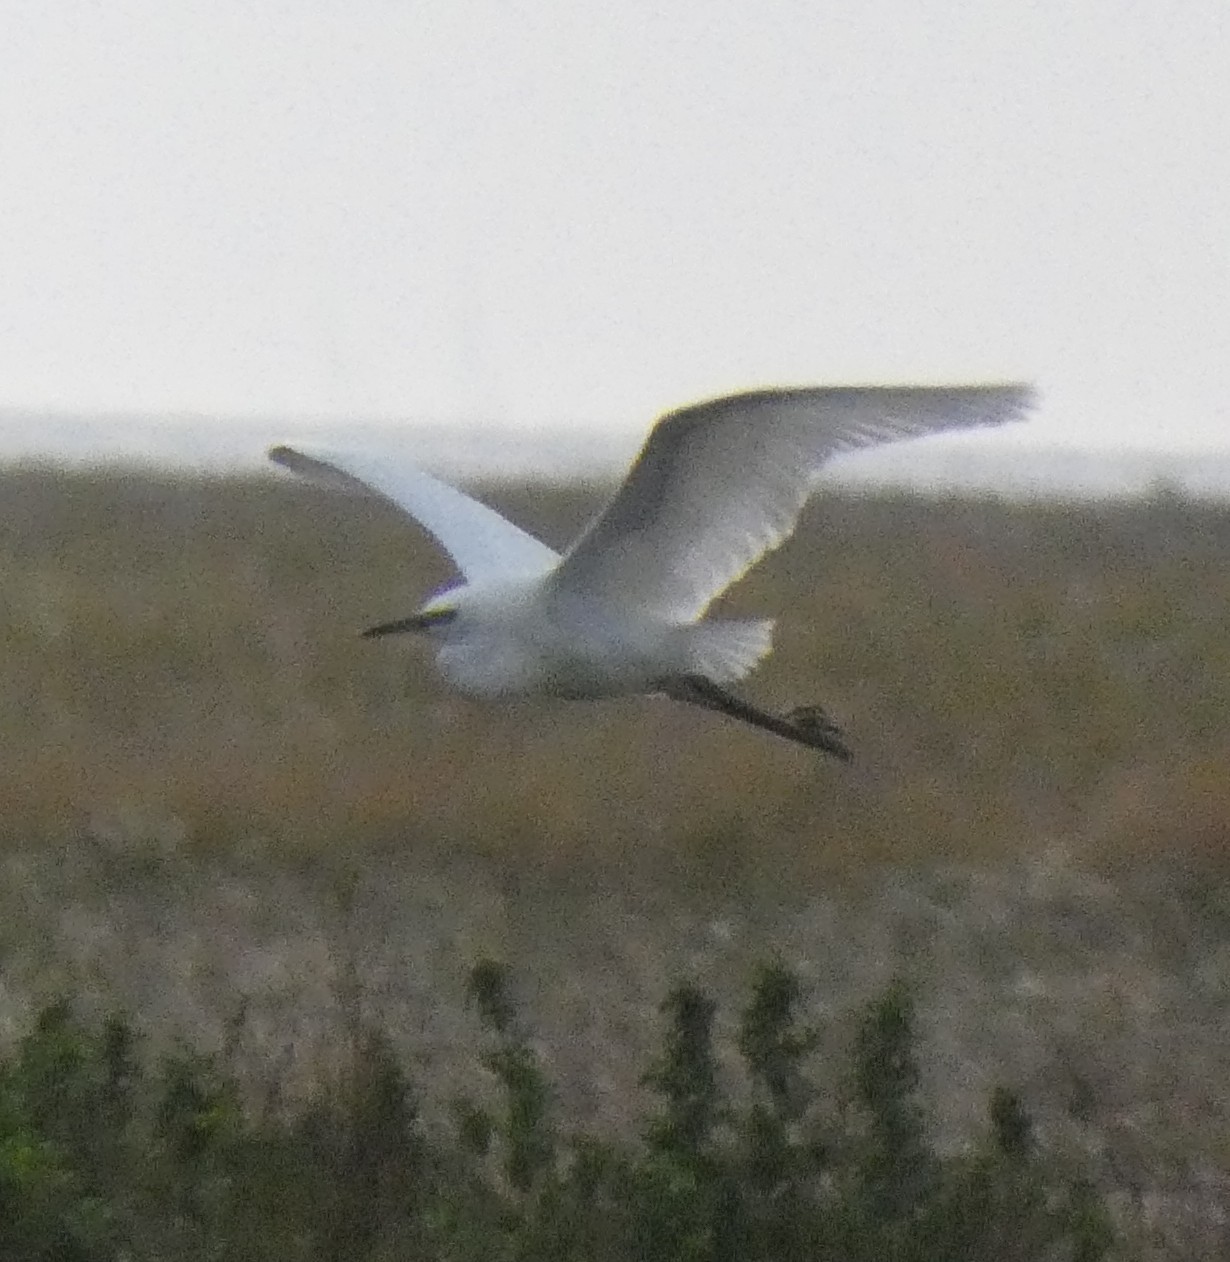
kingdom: Animalia
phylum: Chordata
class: Aves
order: Pelecaniformes
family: Ardeidae
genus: Egretta
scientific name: Egretta garzetta
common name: Little egret
